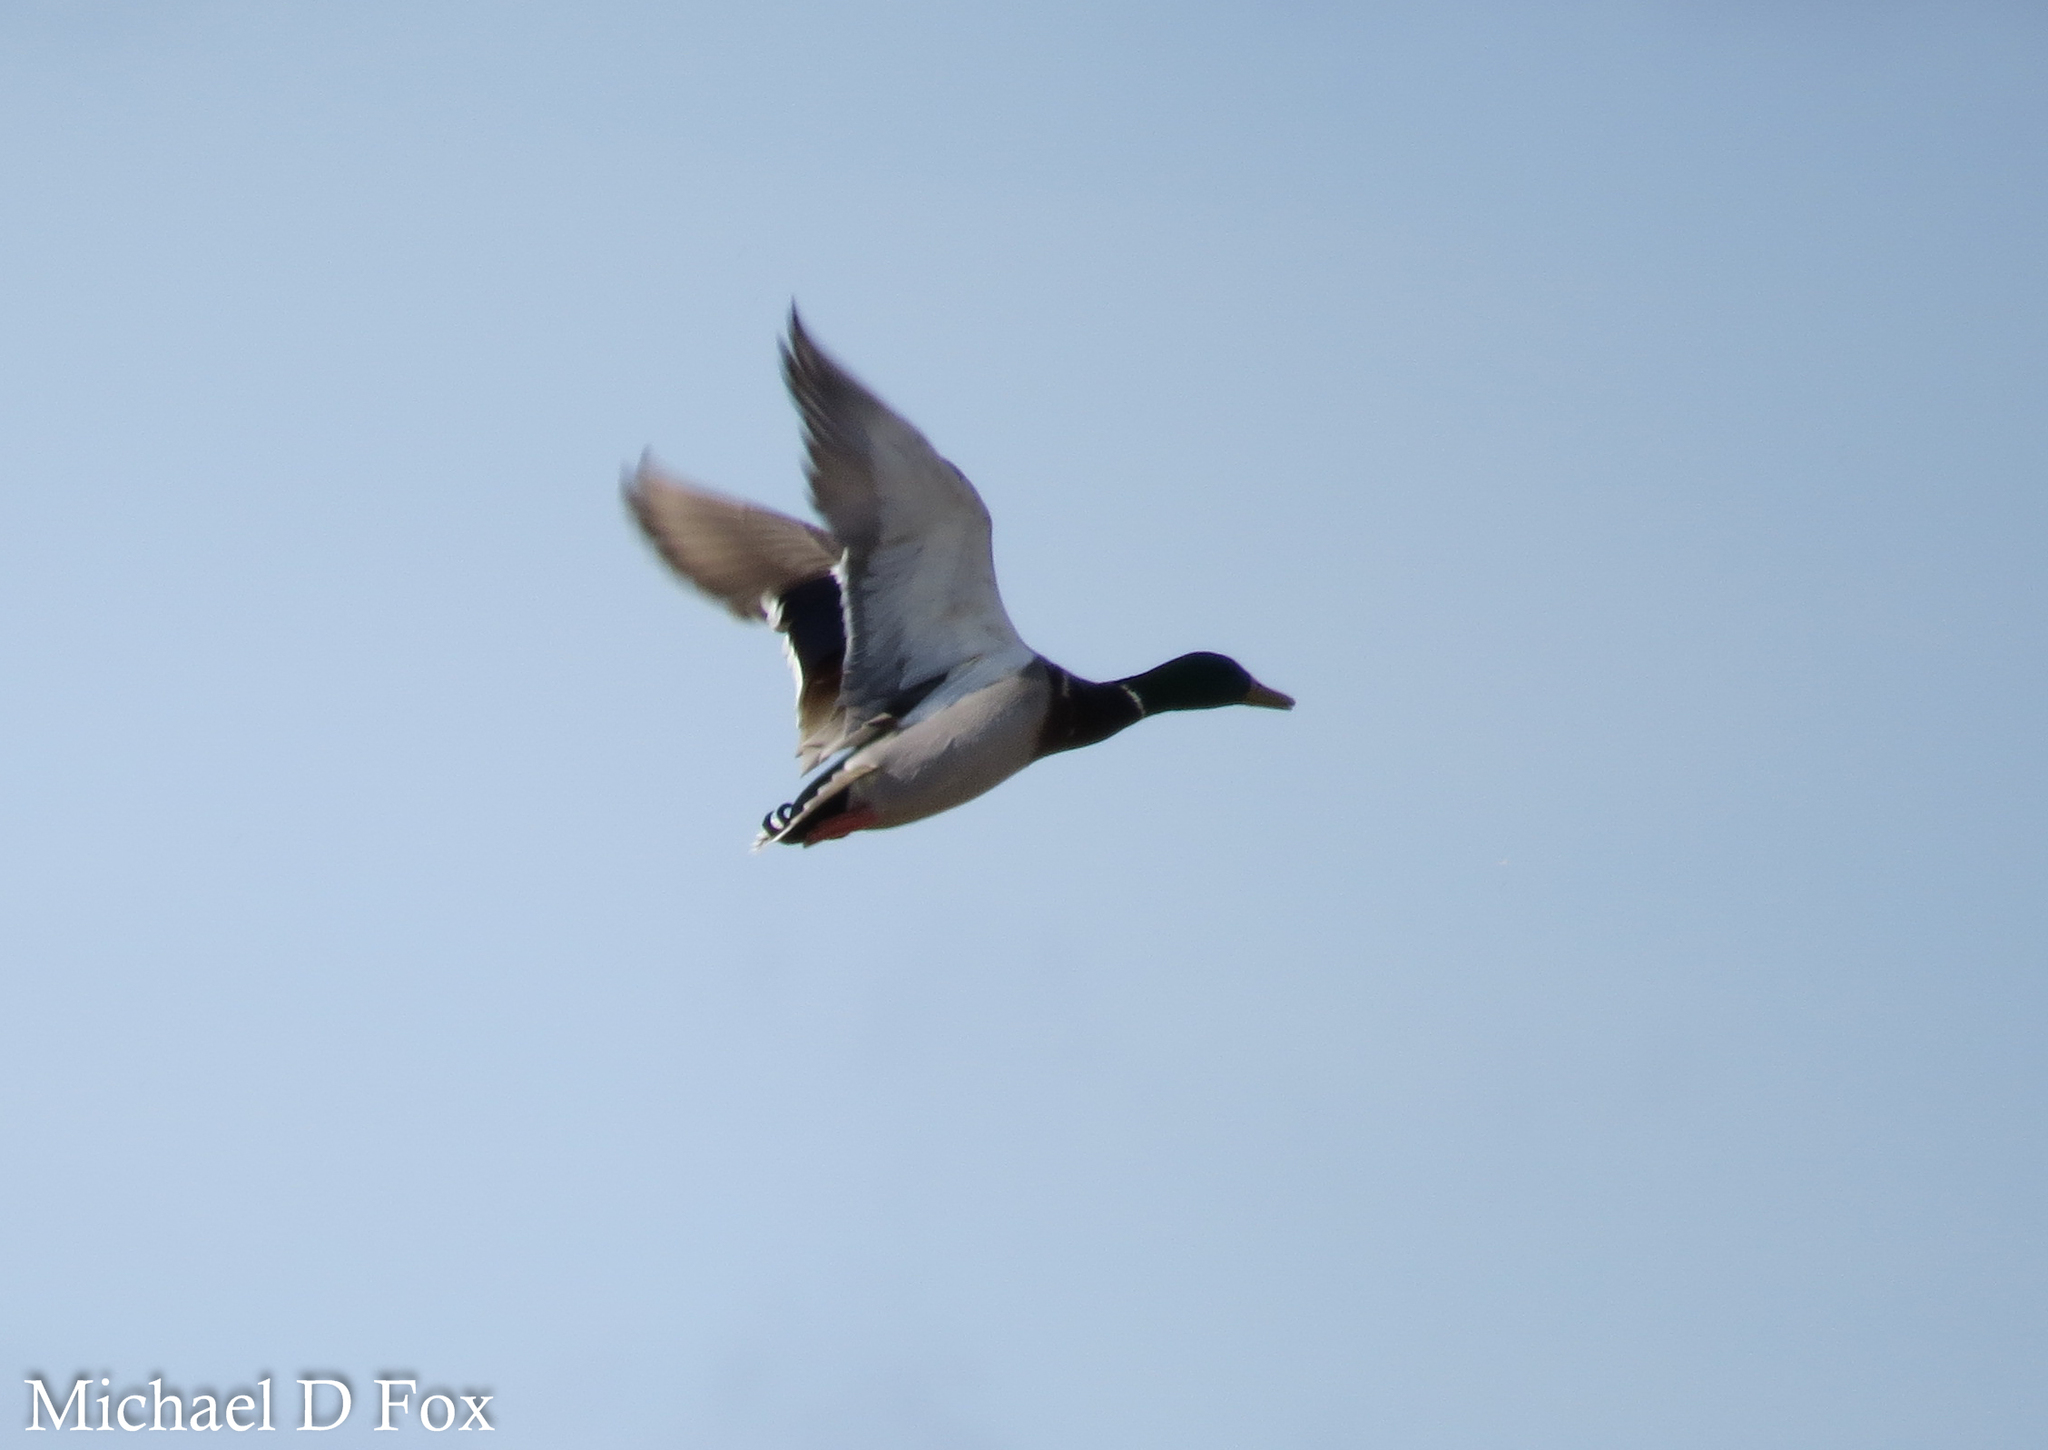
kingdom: Animalia
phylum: Chordata
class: Aves
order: Anseriformes
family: Anatidae
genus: Anas
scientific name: Anas platyrhynchos
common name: Mallard
